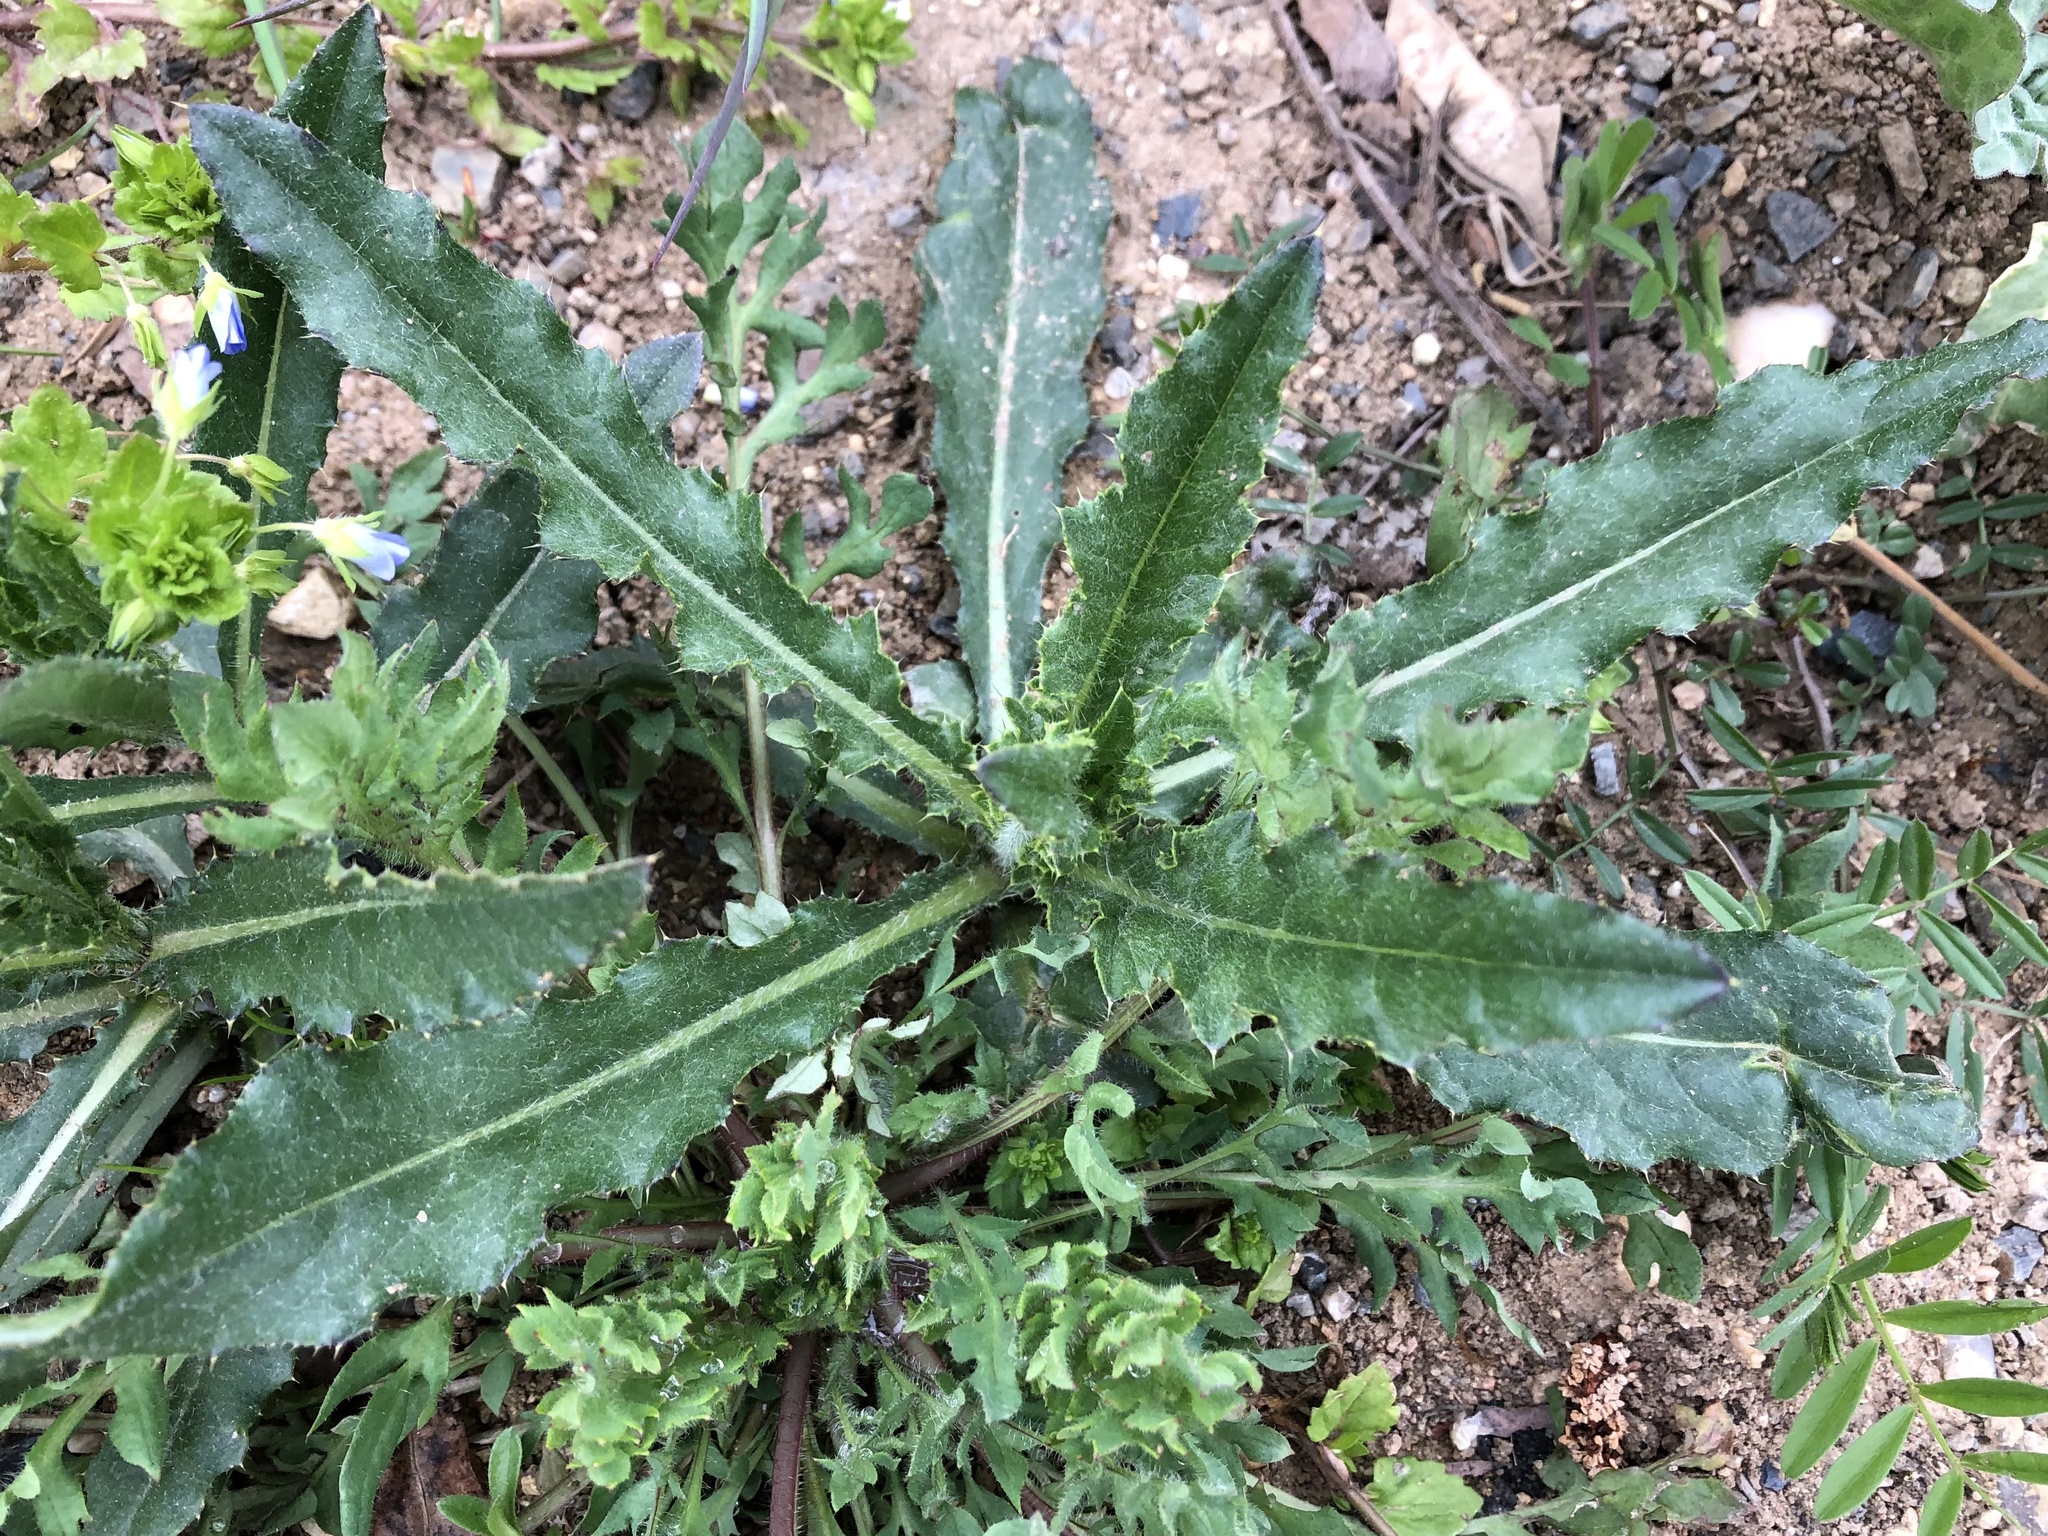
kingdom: Plantae
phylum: Tracheophyta
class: Magnoliopsida
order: Asterales
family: Asteraceae
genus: Cirsium
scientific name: Cirsium arvense
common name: Creeping thistle
